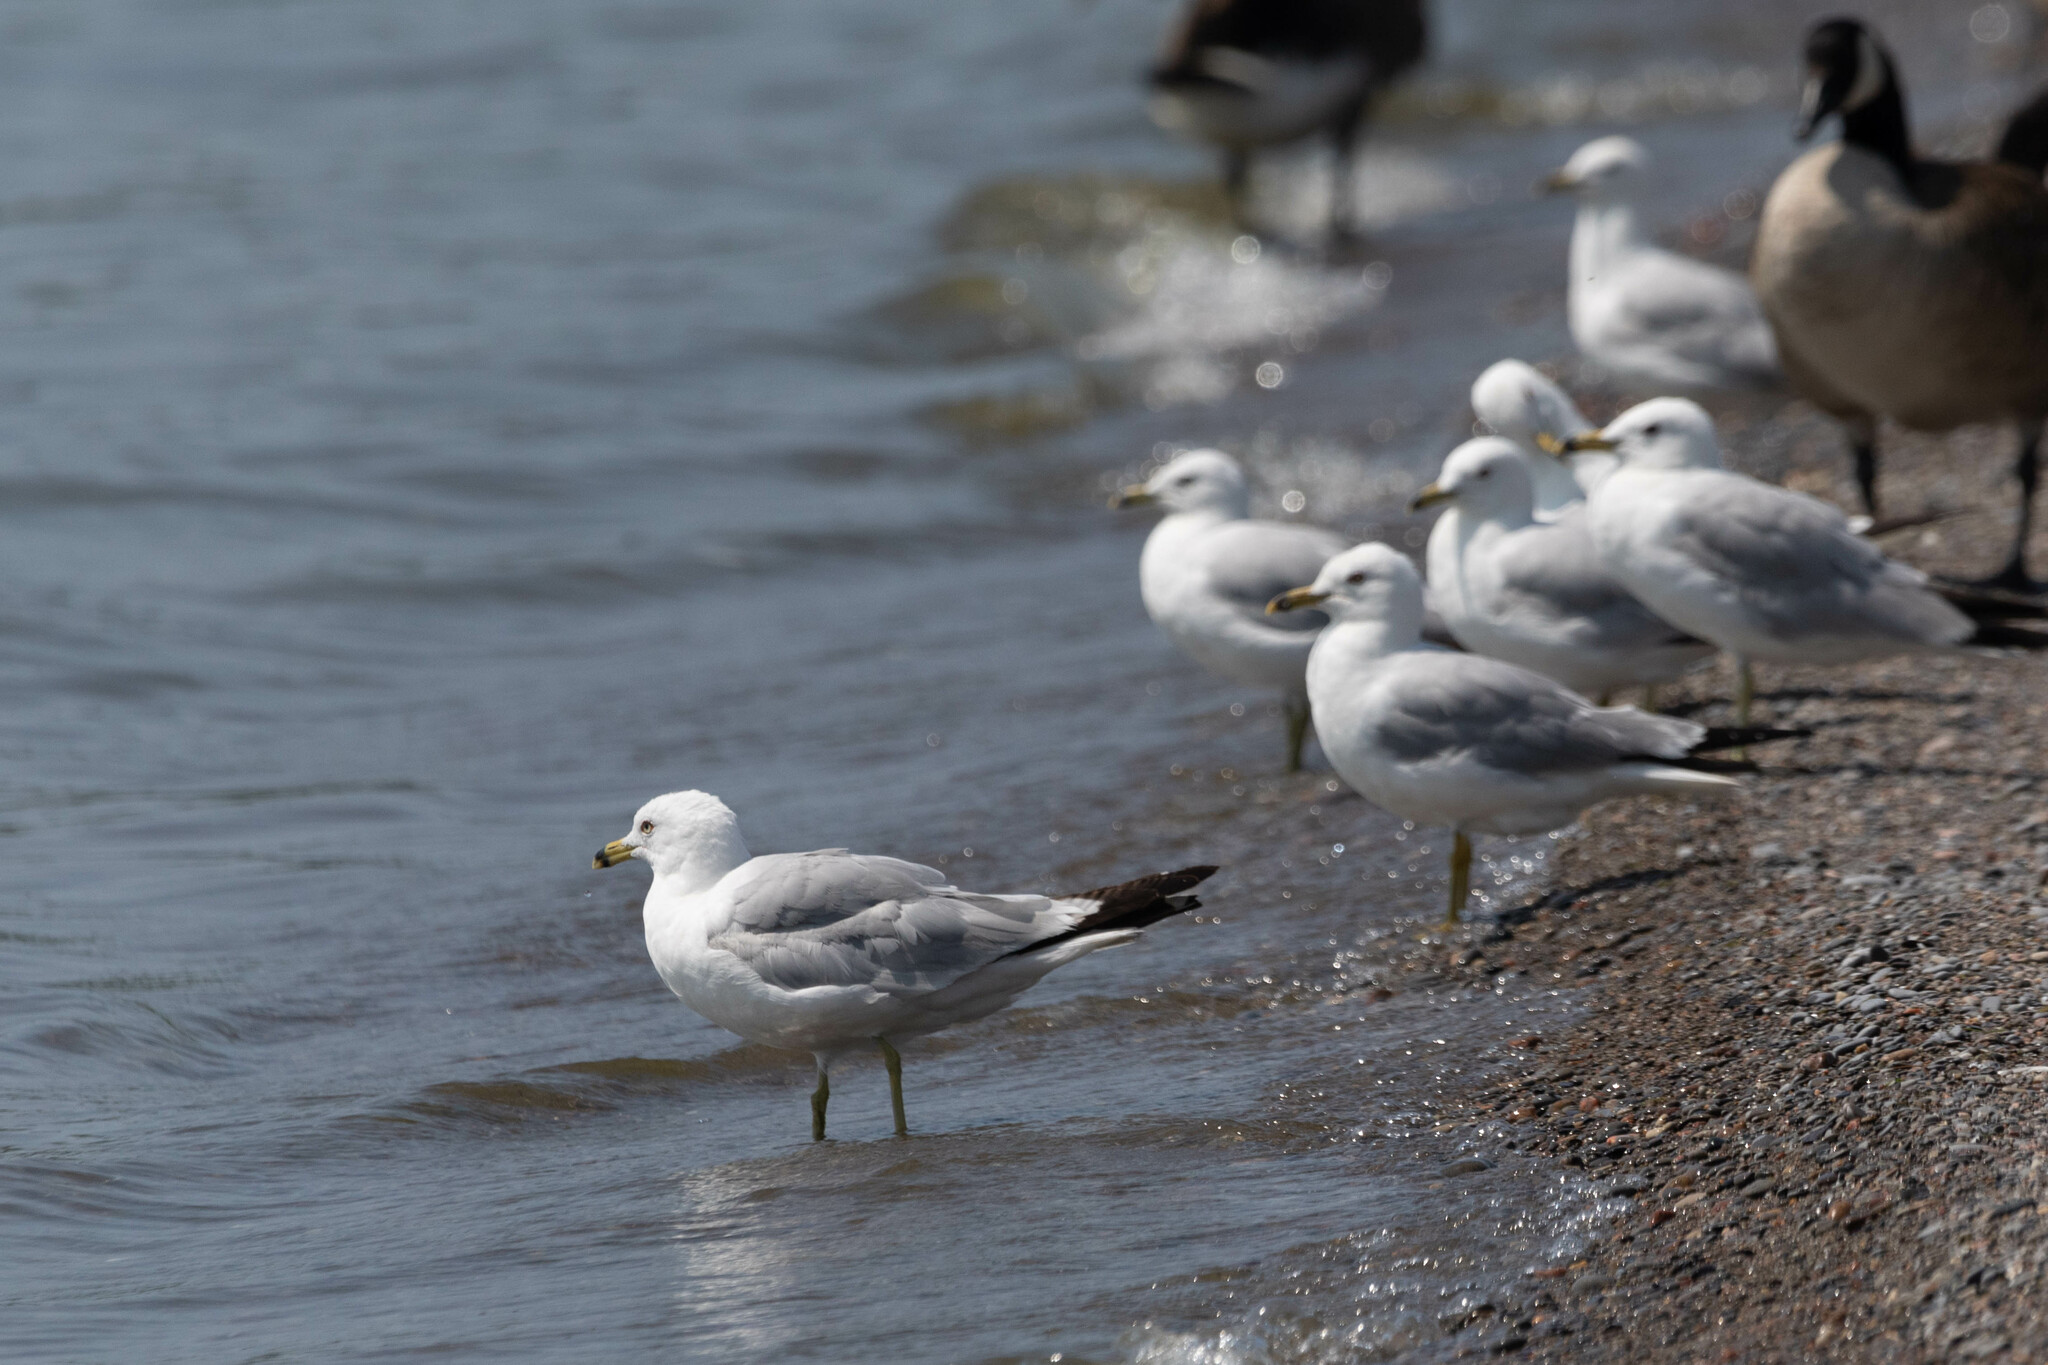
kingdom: Animalia
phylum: Chordata
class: Aves
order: Charadriiformes
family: Laridae
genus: Larus
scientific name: Larus delawarensis
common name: Ring-billed gull
